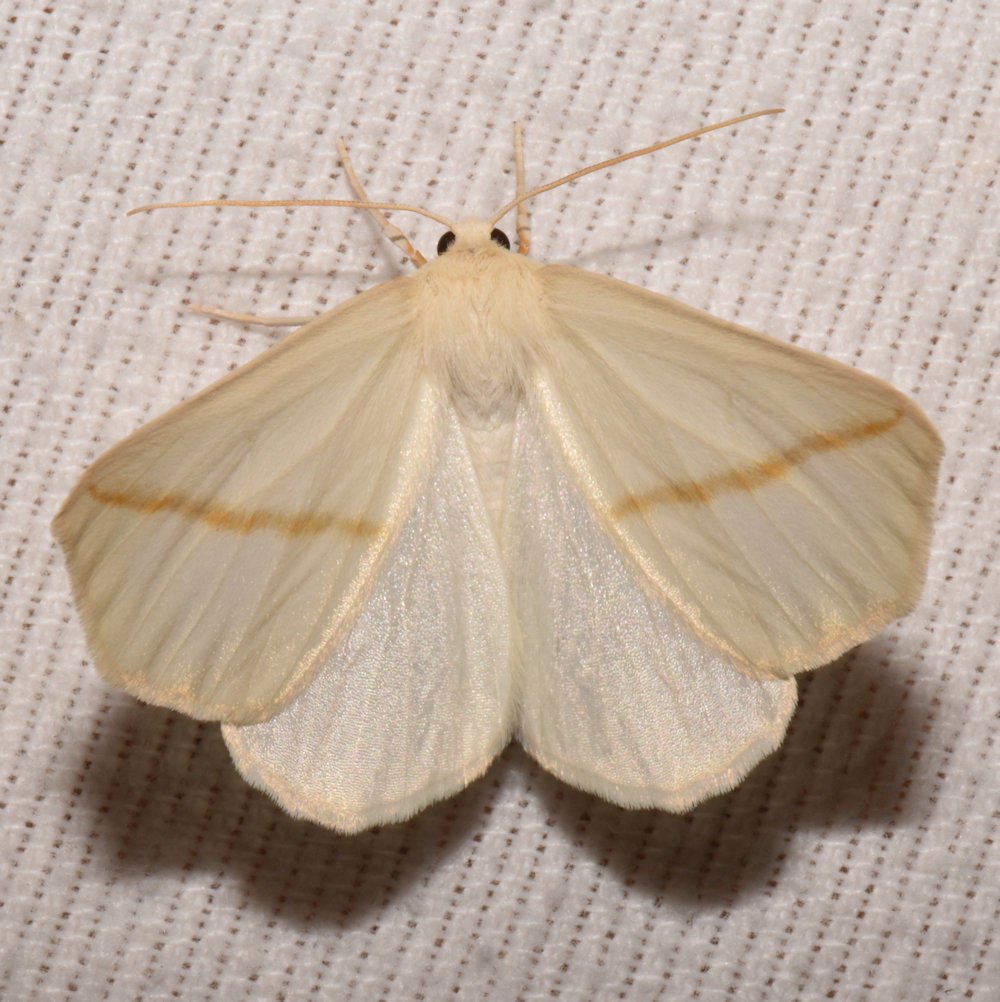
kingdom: Animalia
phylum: Arthropoda
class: Insecta
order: Lepidoptera
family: Geometridae
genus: Tetracis
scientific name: Tetracis cachexiata
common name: White slant-line
